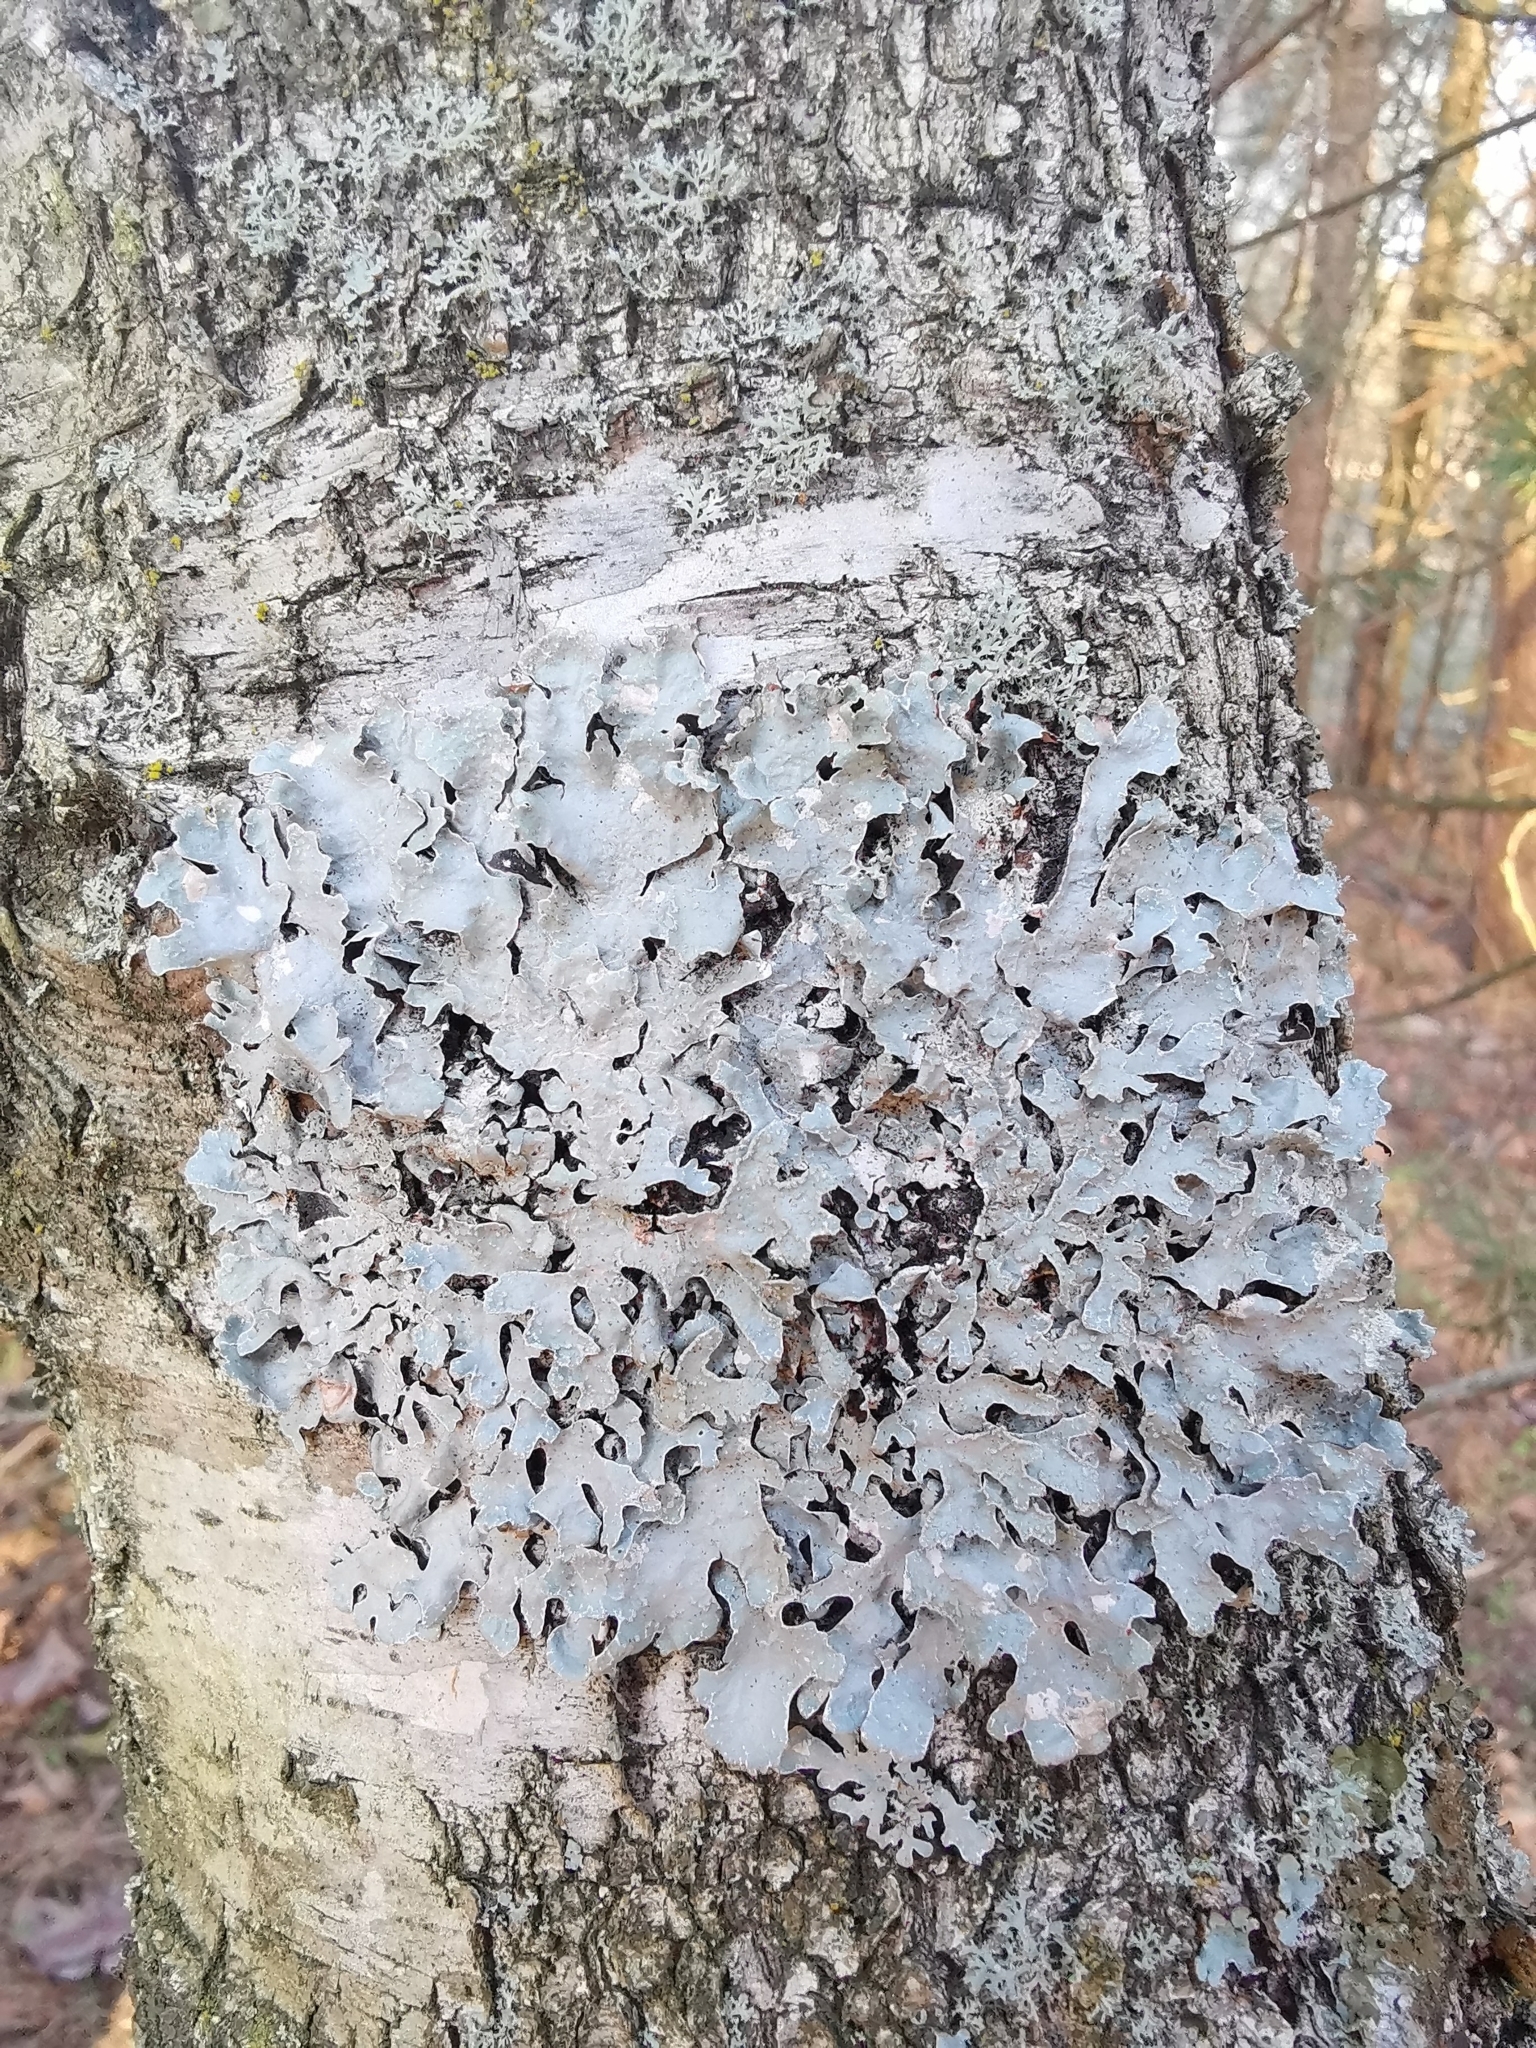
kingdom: Fungi
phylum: Ascomycota
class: Lecanoromycetes
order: Lecanorales
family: Parmeliaceae
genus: Parmelia
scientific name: Parmelia sulcata
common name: Netted shield lichen
